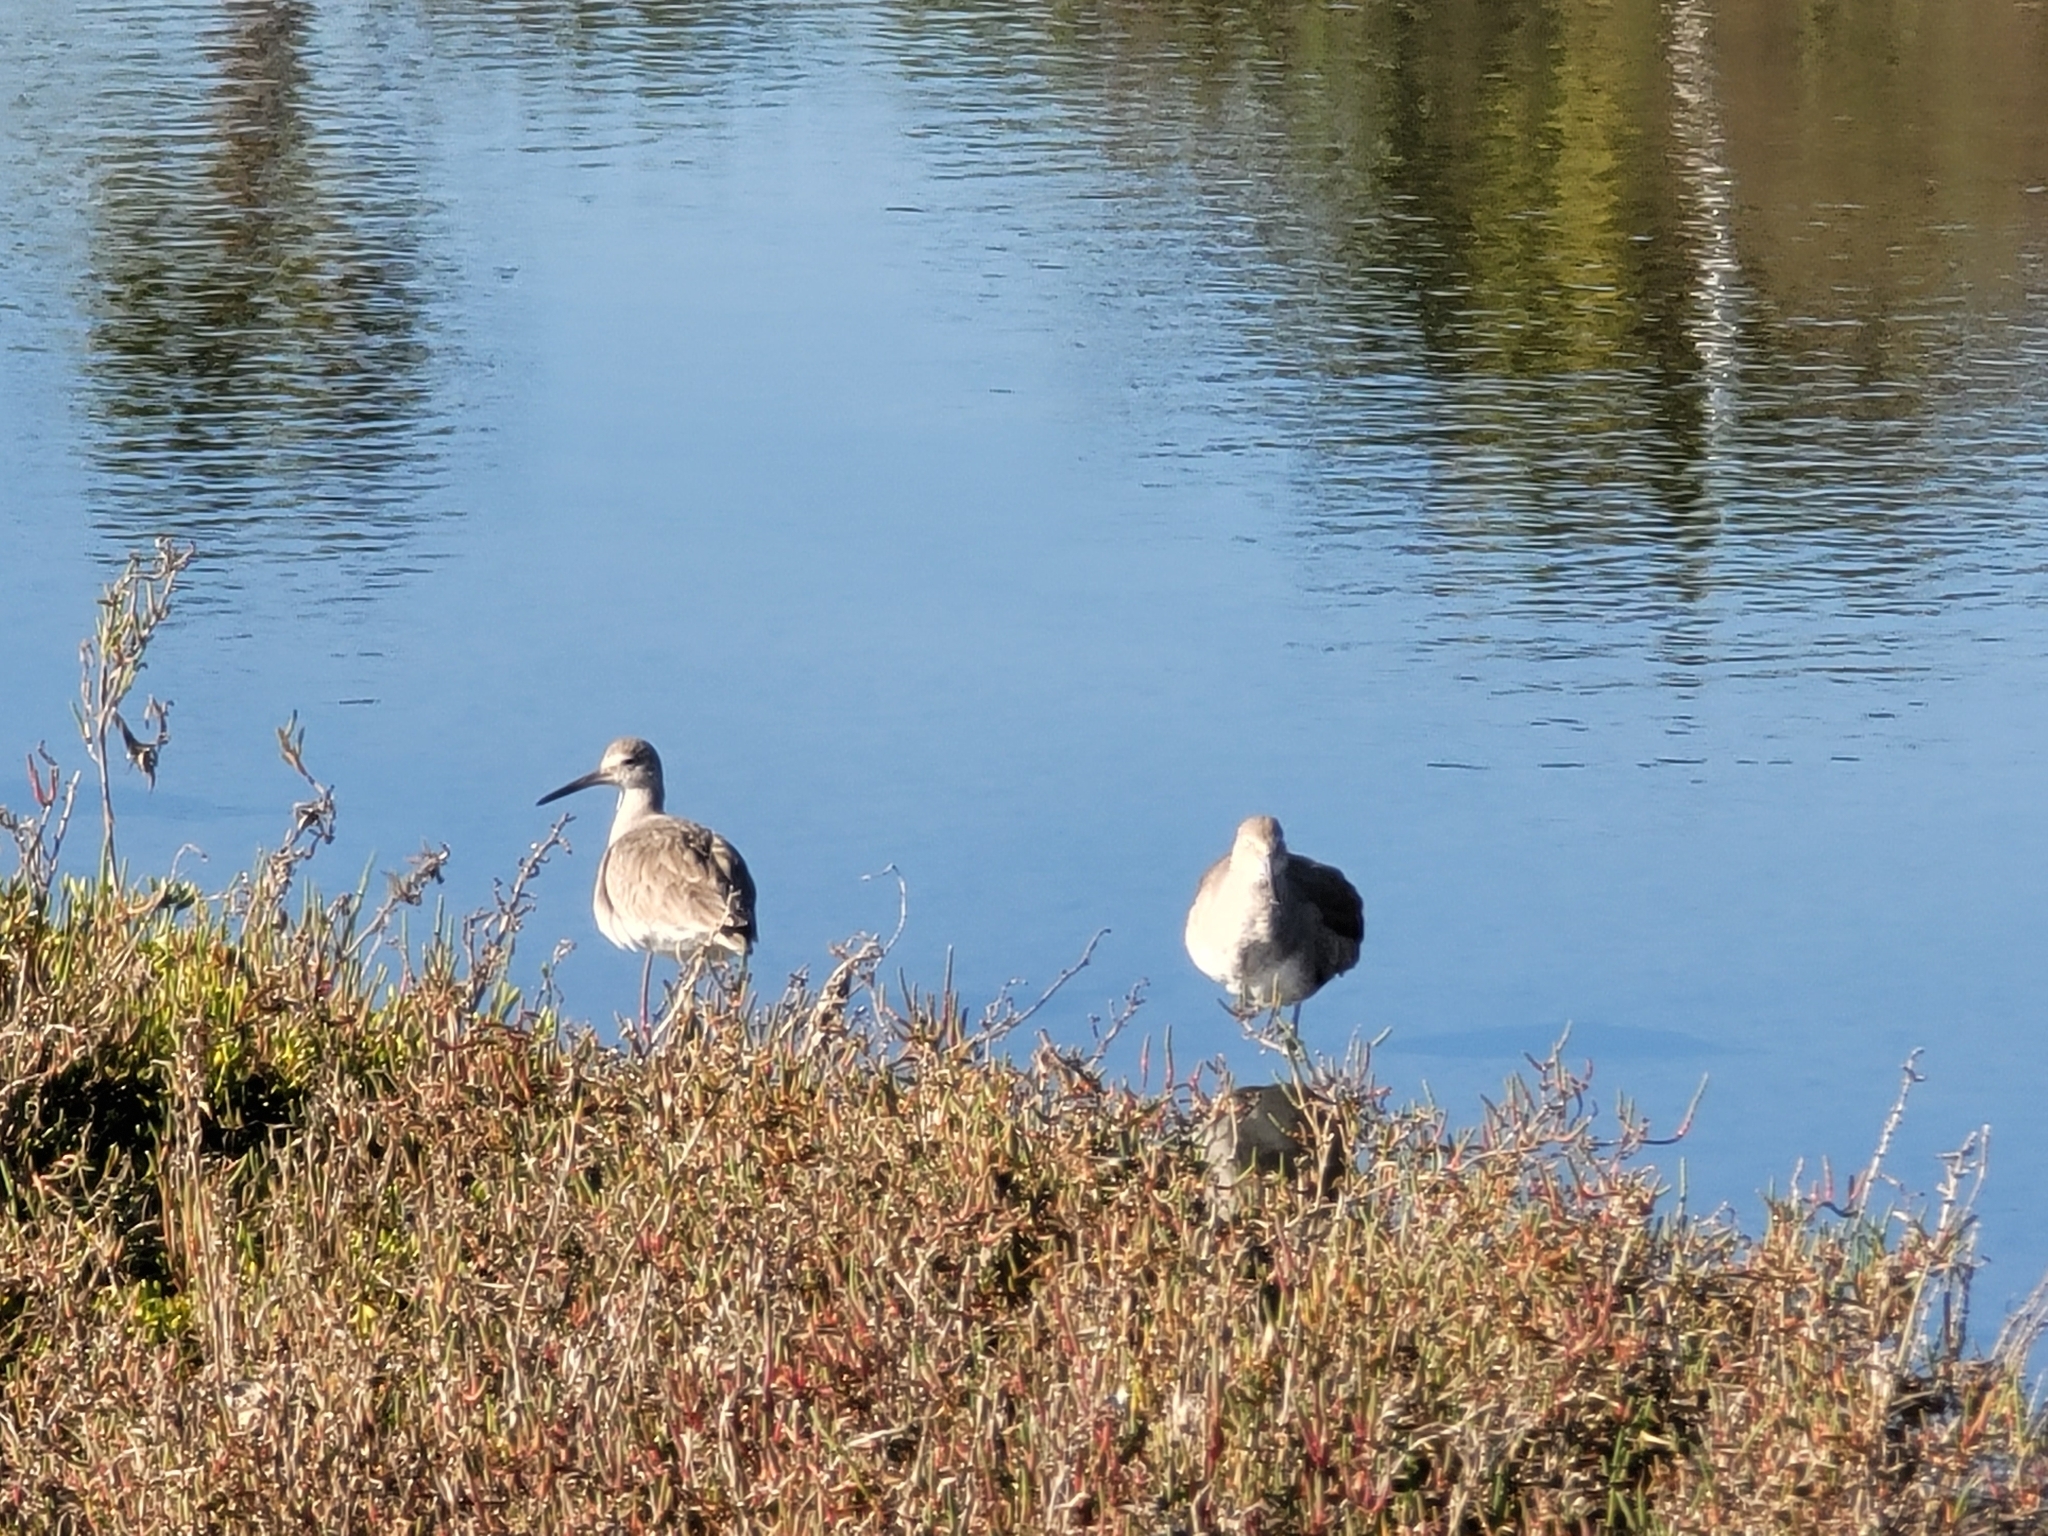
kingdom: Animalia
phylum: Chordata
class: Aves
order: Charadriiformes
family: Scolopacidae
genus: Tringa
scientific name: Tringa semipalmata
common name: Willet
